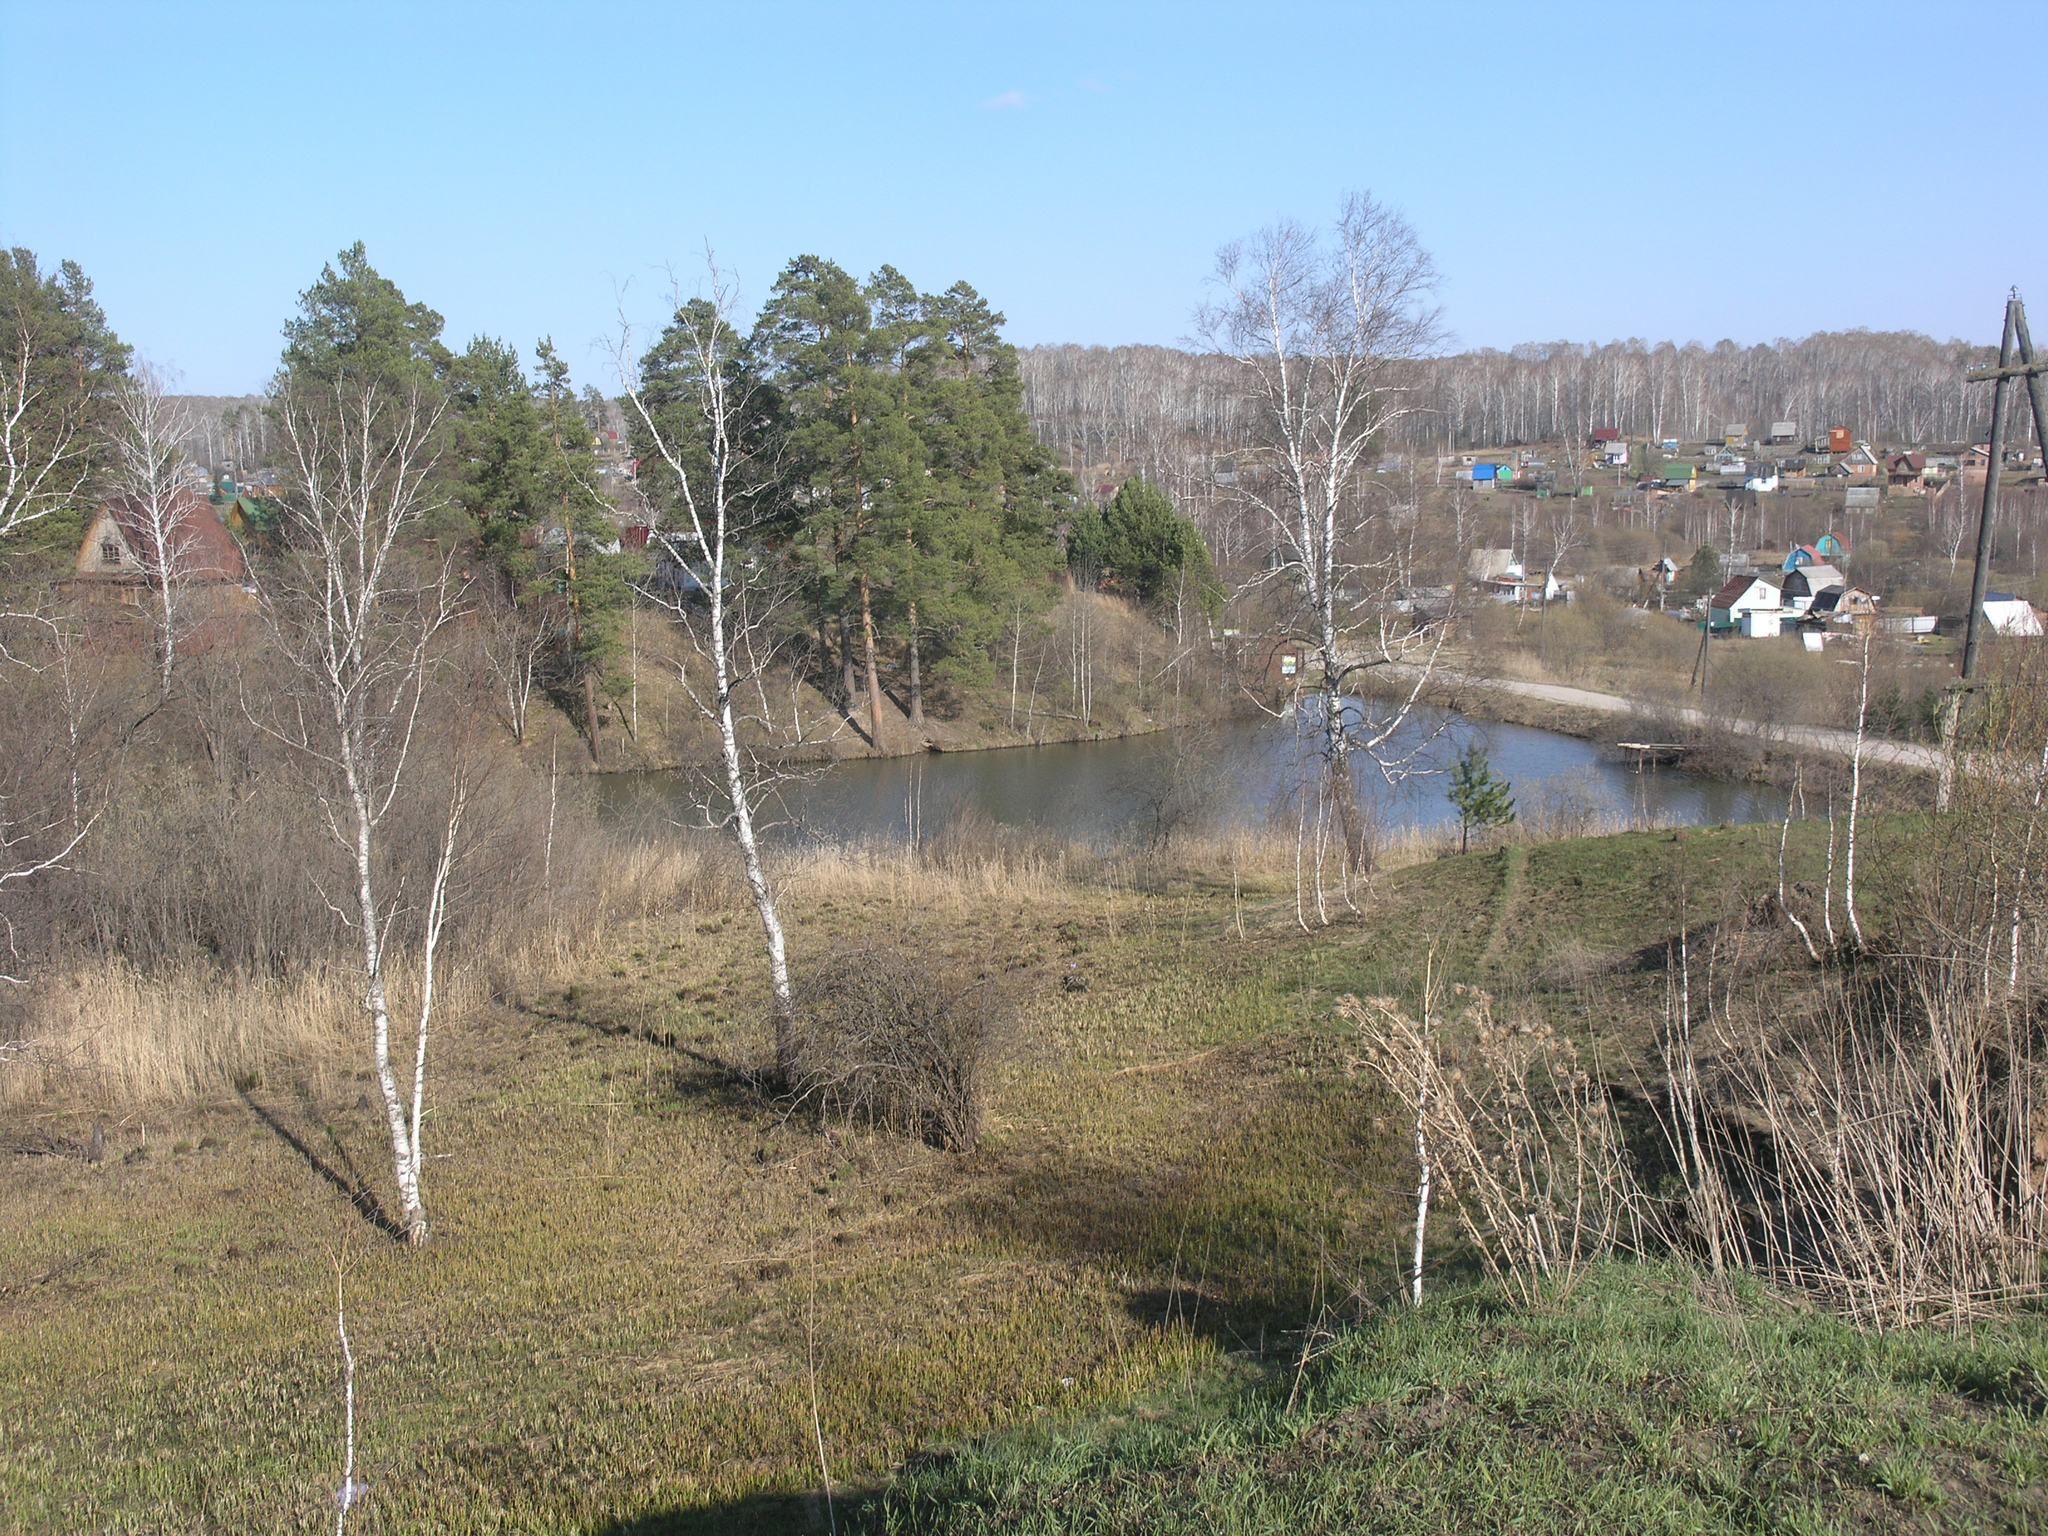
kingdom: Plantae
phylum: Tracheophyta
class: Pinopsida
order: Pinales
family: Pinaceae
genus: Pinus
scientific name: Pinus sylvestris
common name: Scots pine
